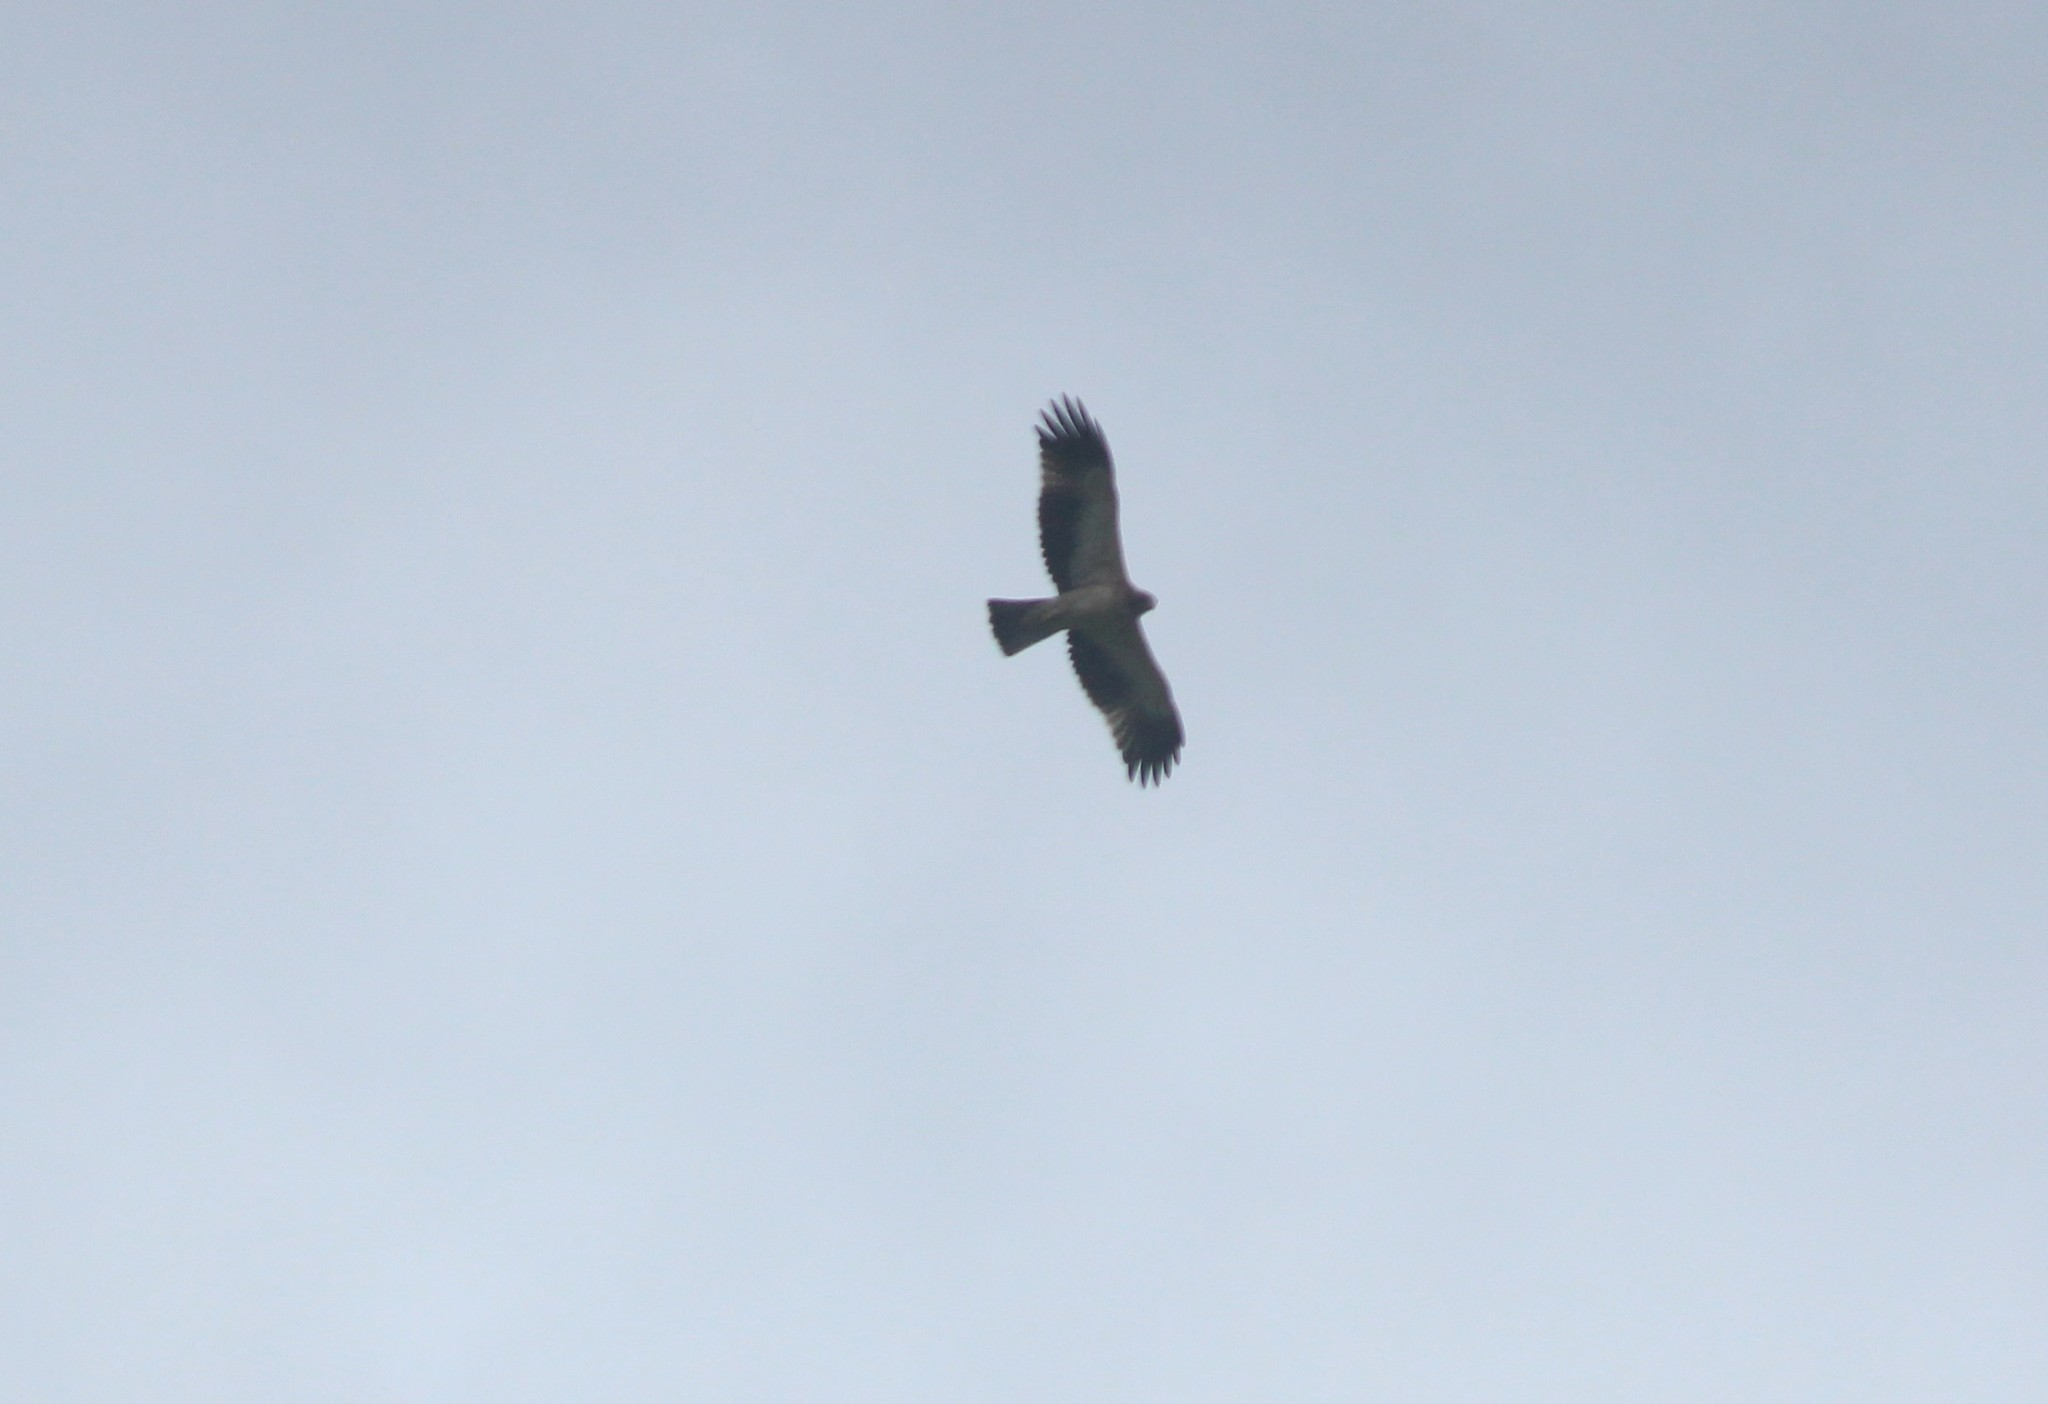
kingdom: Animalia
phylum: Chordata
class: Aves
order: Accipitriformes
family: Accipitridae
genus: Hieraaetus
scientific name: Hieraaetus pennatus
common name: Booted eagle
